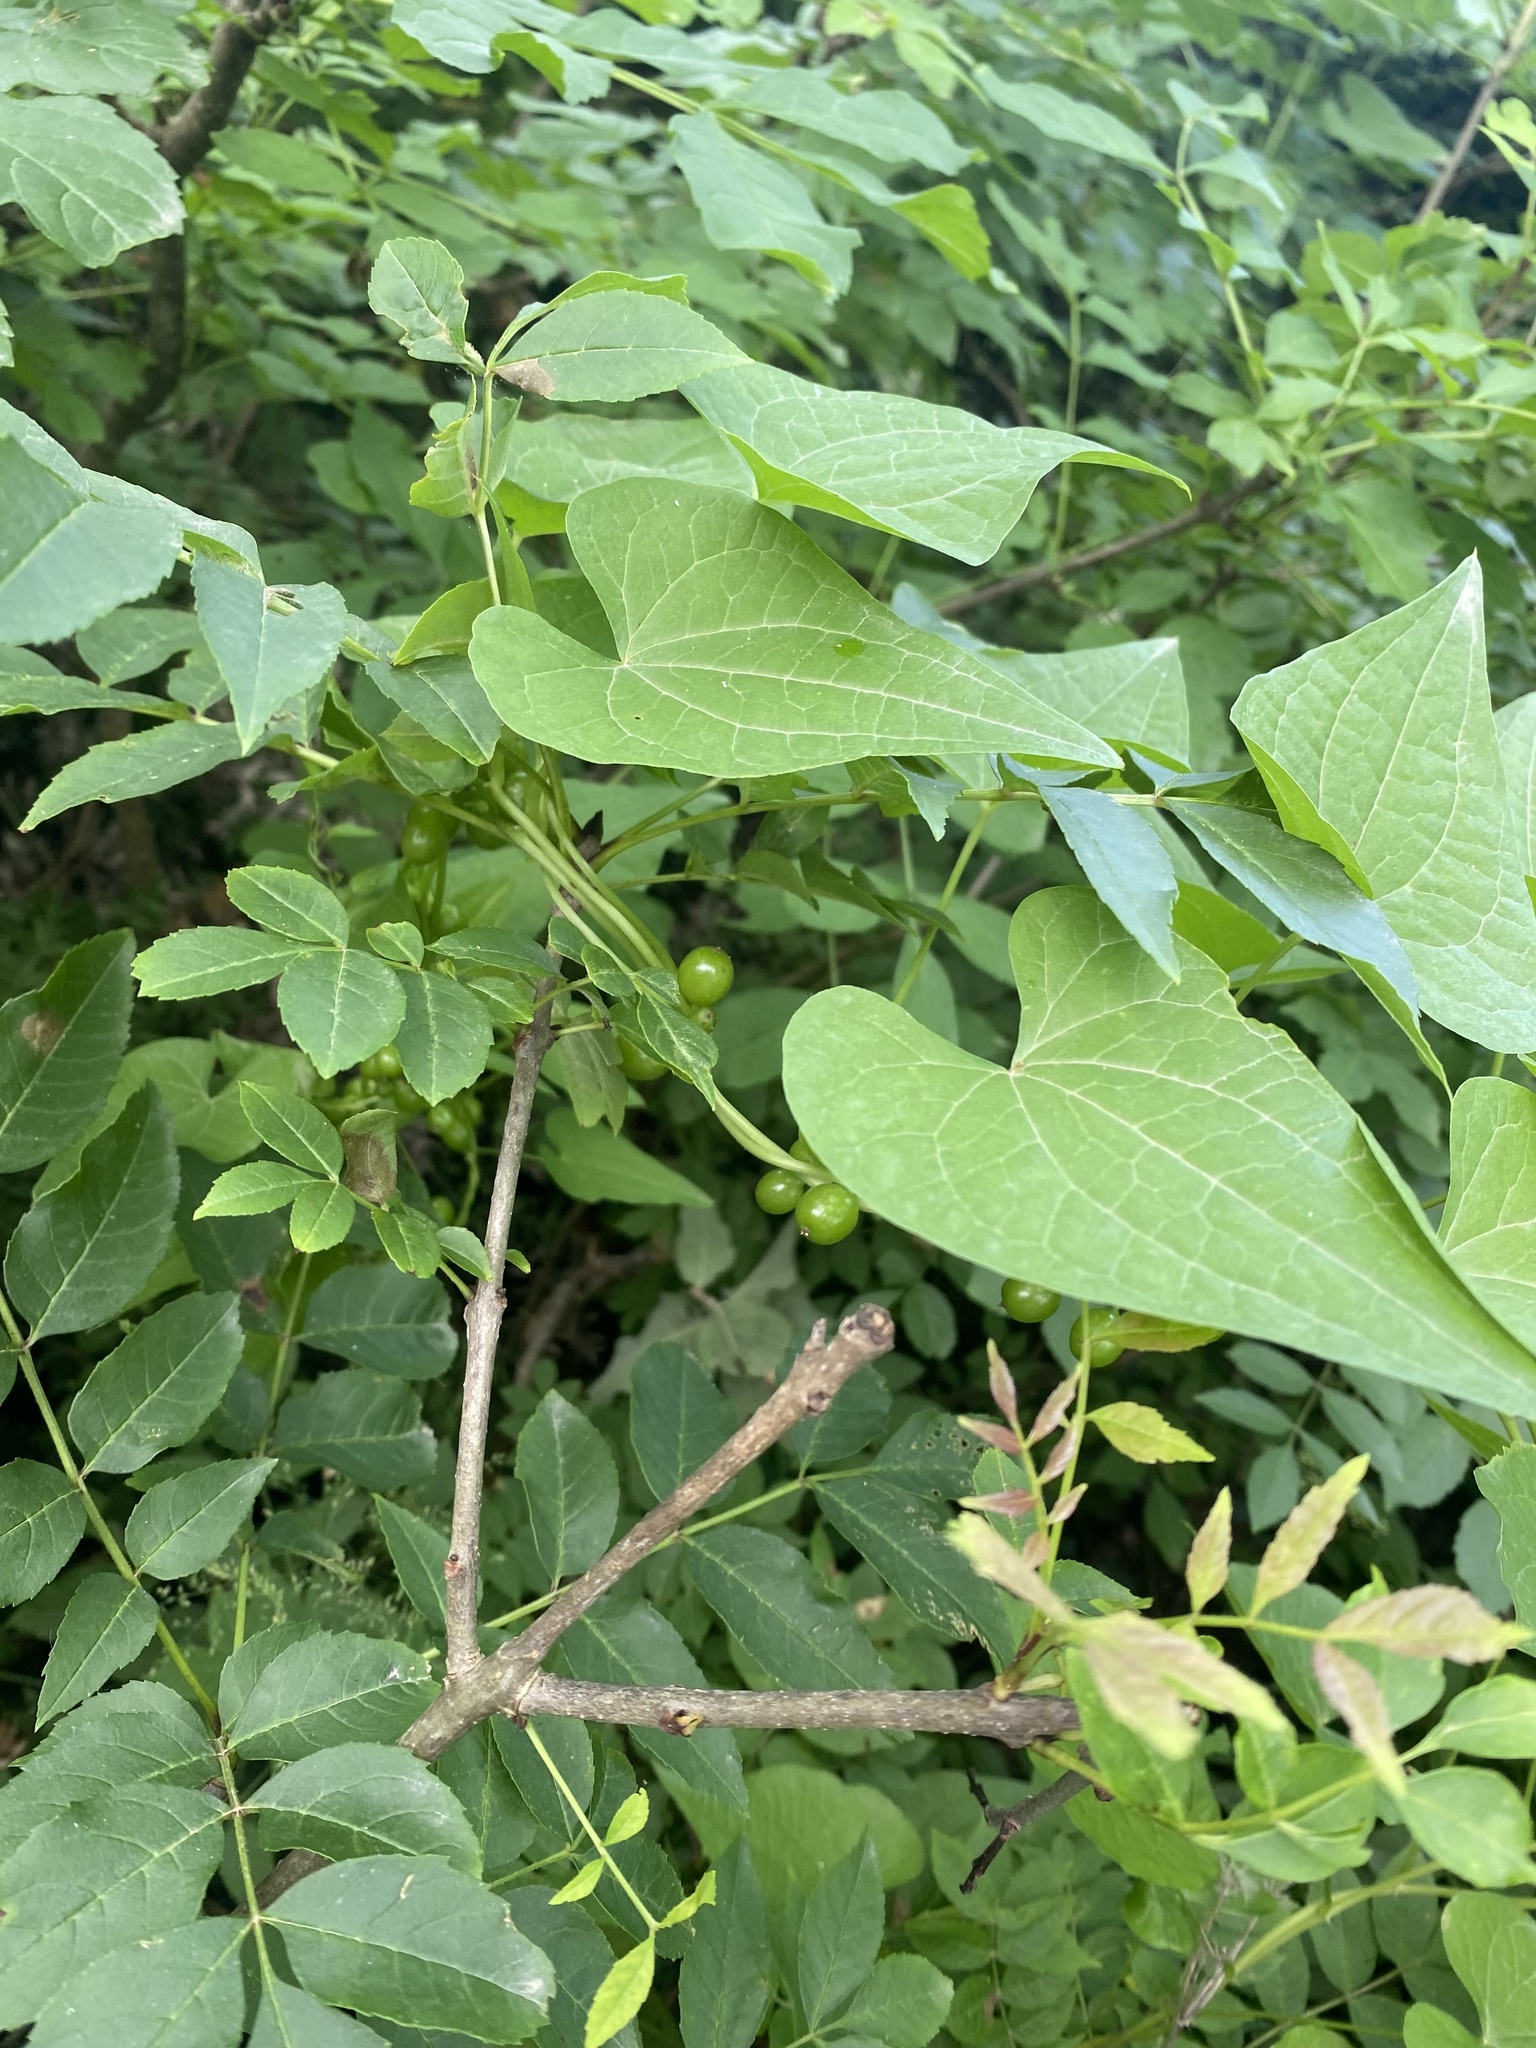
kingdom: Plantae
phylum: Tracheophyta
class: Liliopsida
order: Dioscoreales
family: Dioscoreaceae
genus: Dioscorea
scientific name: Dioscorea communis
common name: Black-bindweed
